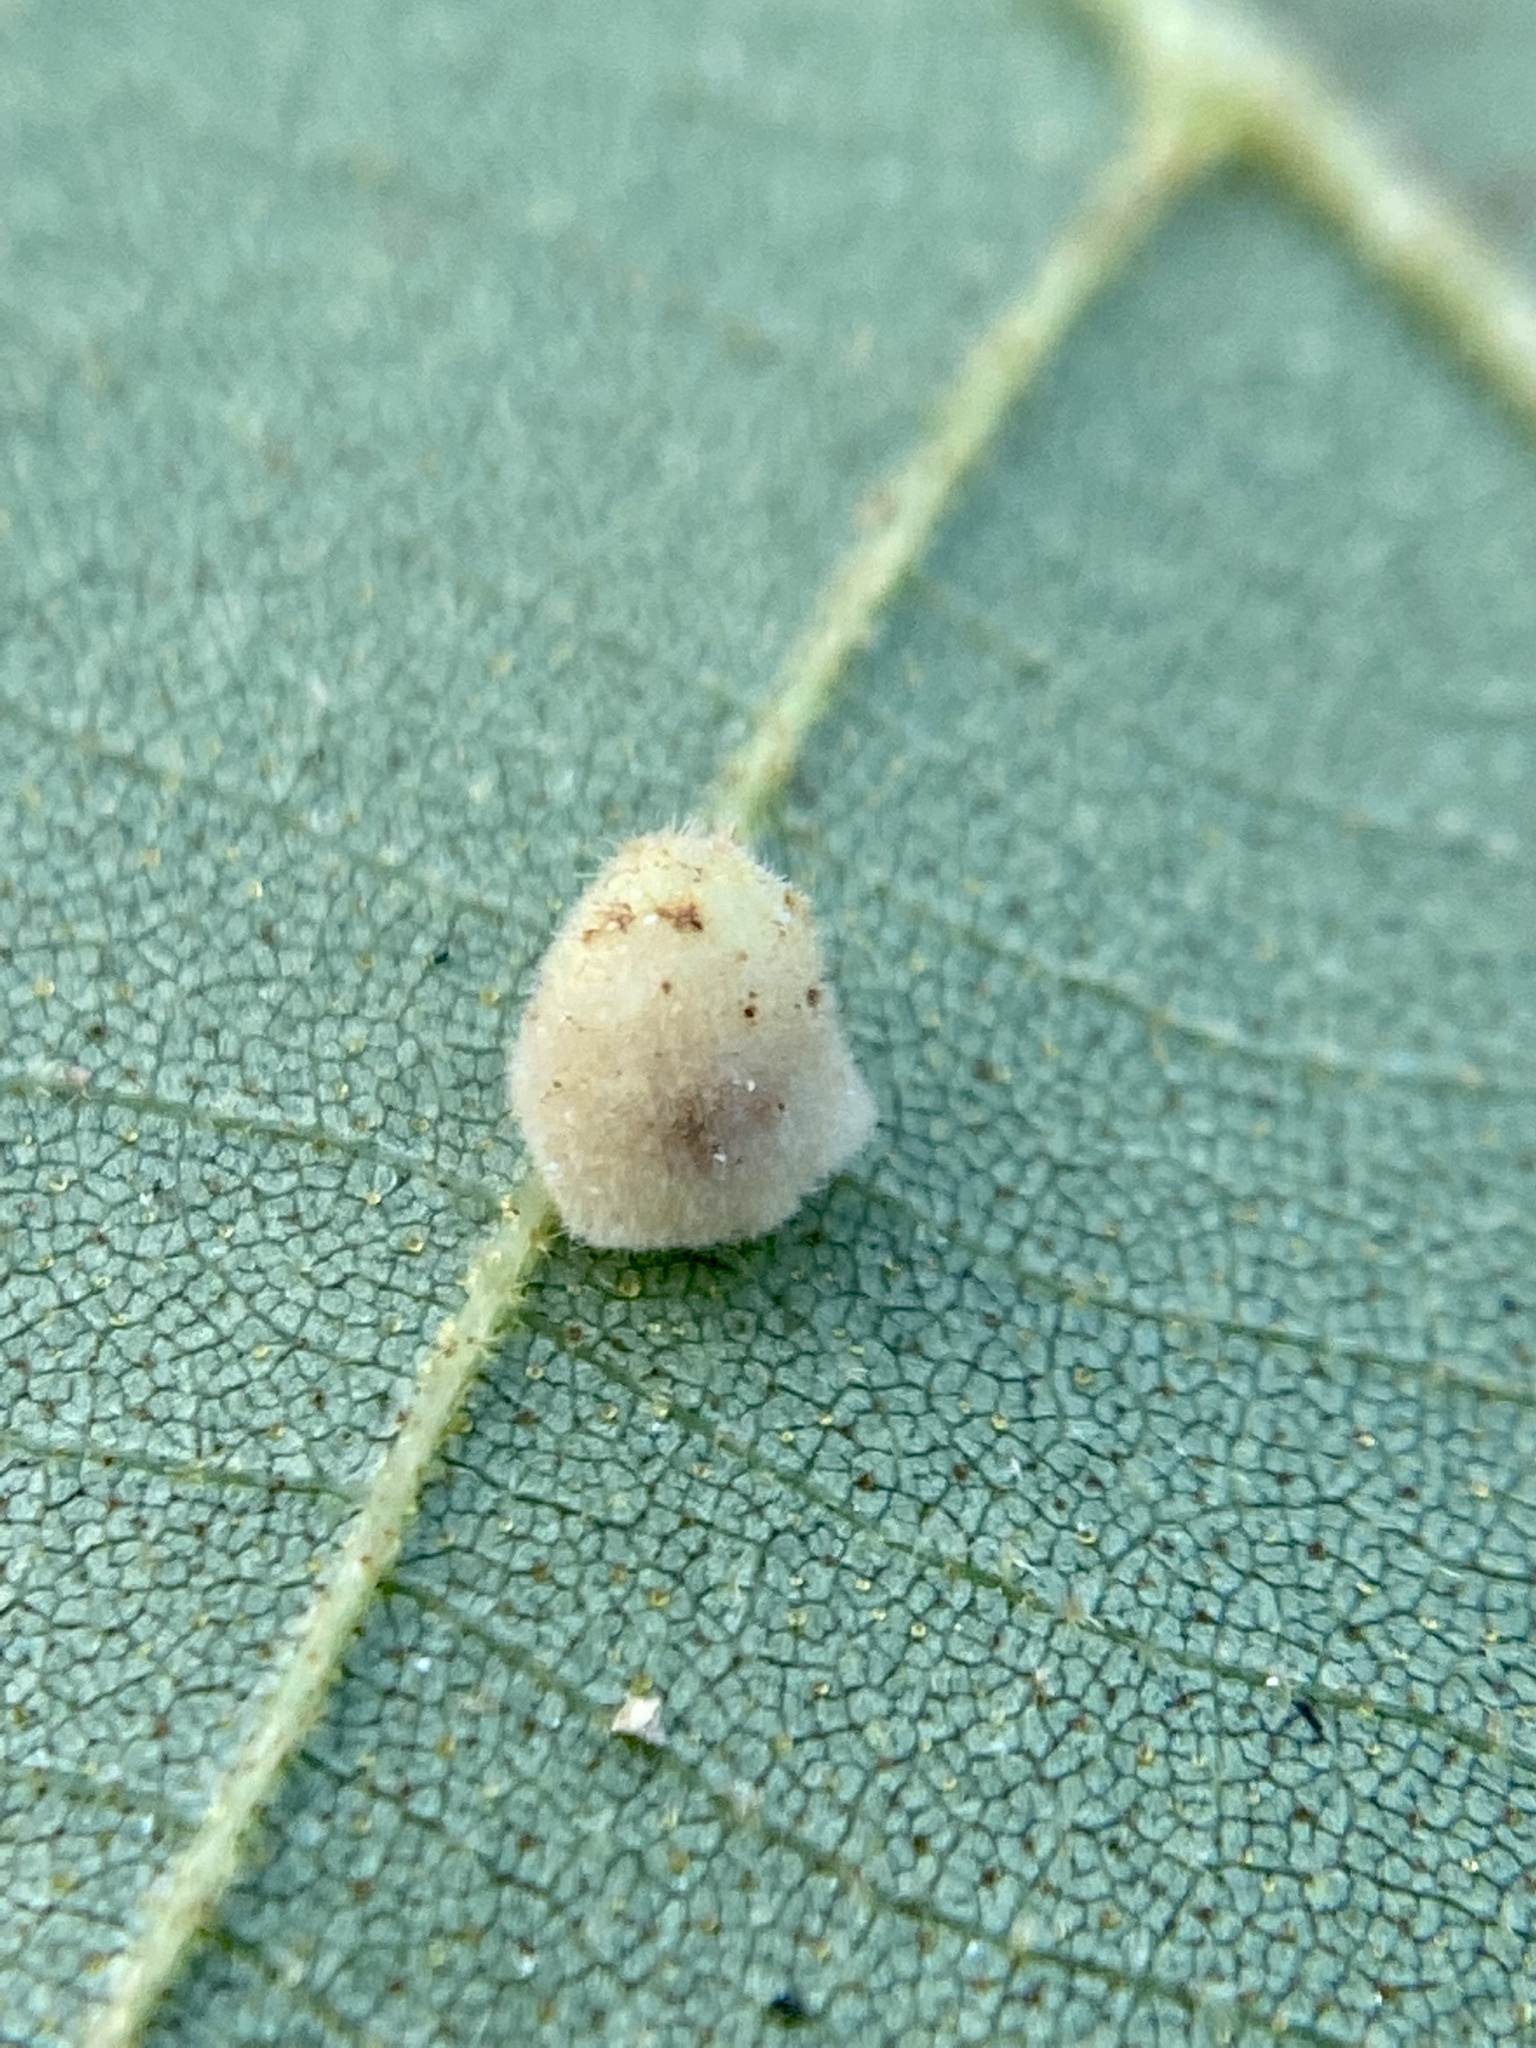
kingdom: Animalia
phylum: Arthropoda
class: Insecta
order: Diptera
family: Cecidomyiidae
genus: Caryomyia
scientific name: Caryomyia persicoides
